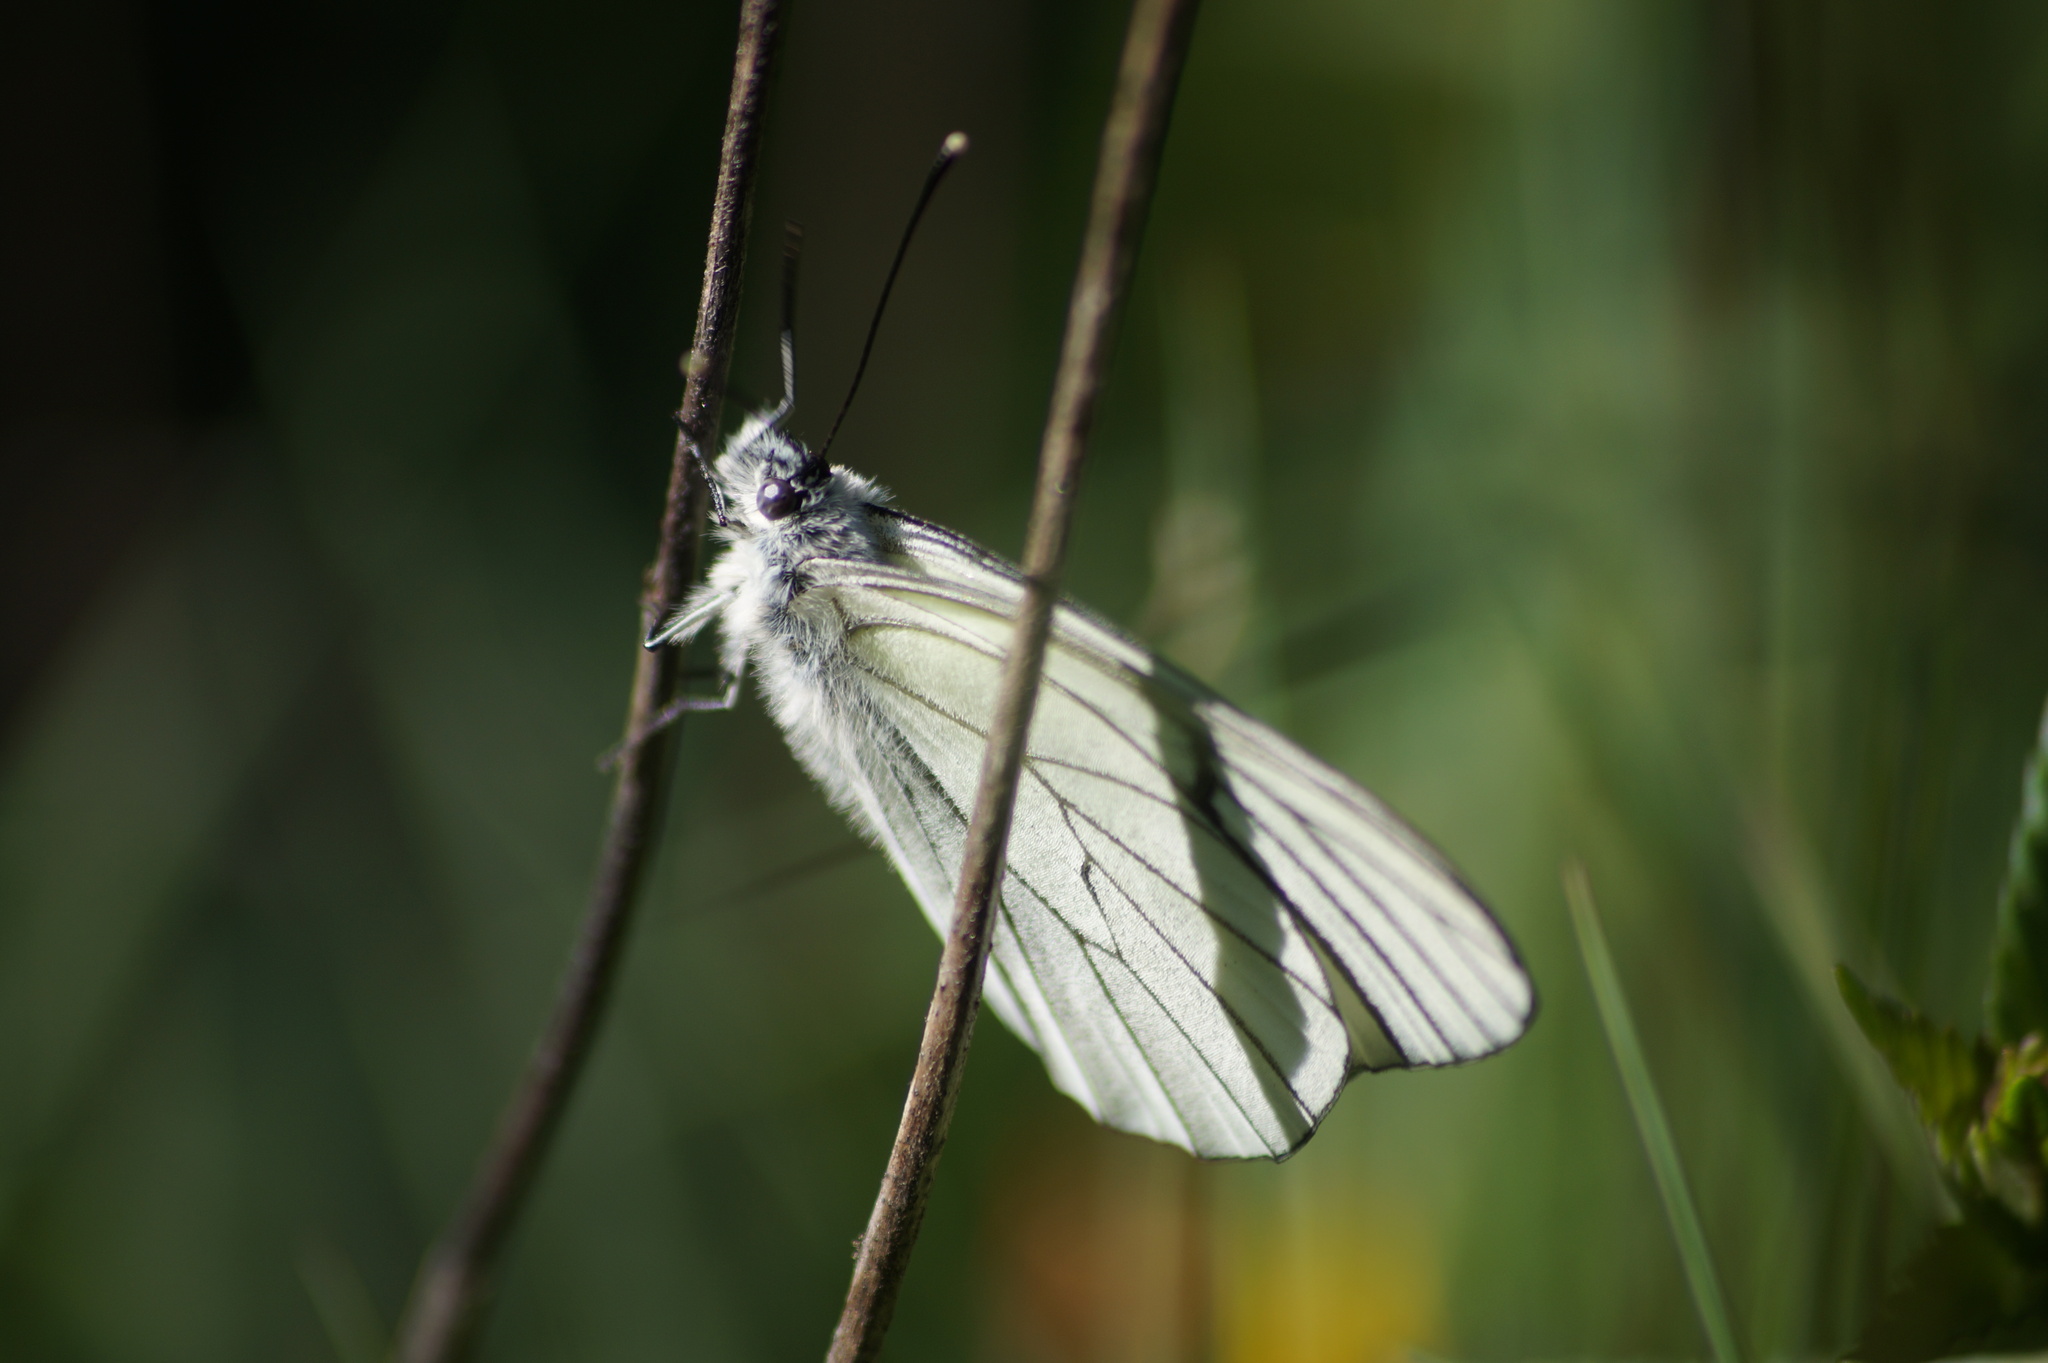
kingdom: Animalia
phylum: Arthropoda
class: Insecta
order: Lepidoptera
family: Pieridae
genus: Aporia
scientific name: Aporia crataegi
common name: Black-veined white
